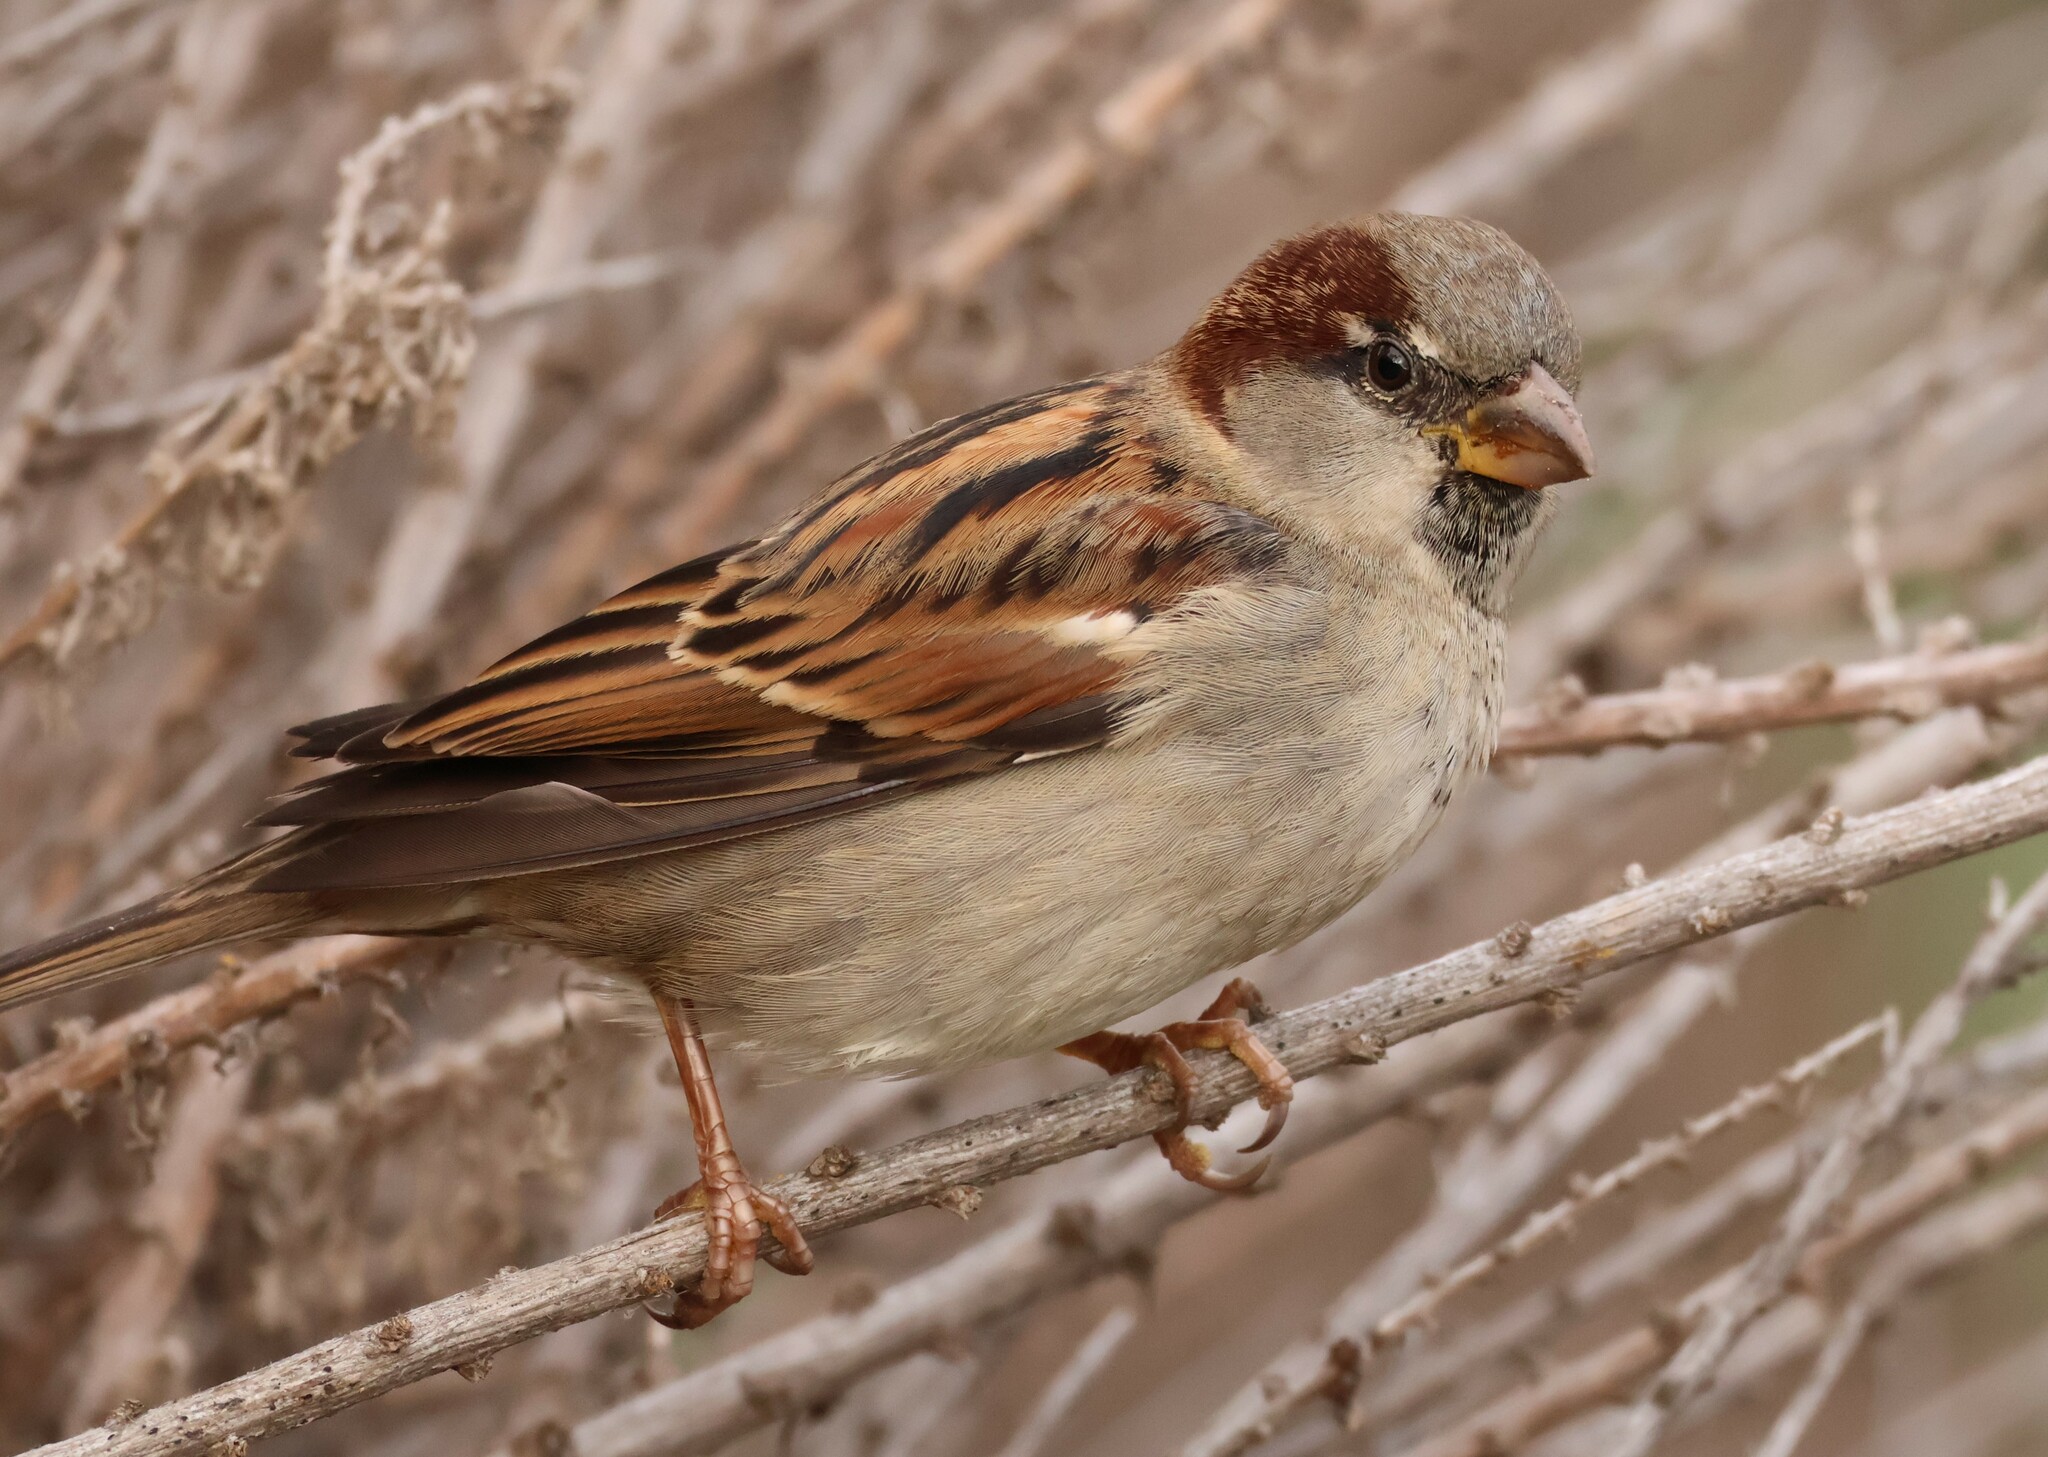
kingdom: Animalia
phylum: Chordata
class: Aves
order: Passeriformes
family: Passeridae
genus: Passer
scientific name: Passer domesticus
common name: House sparrow
